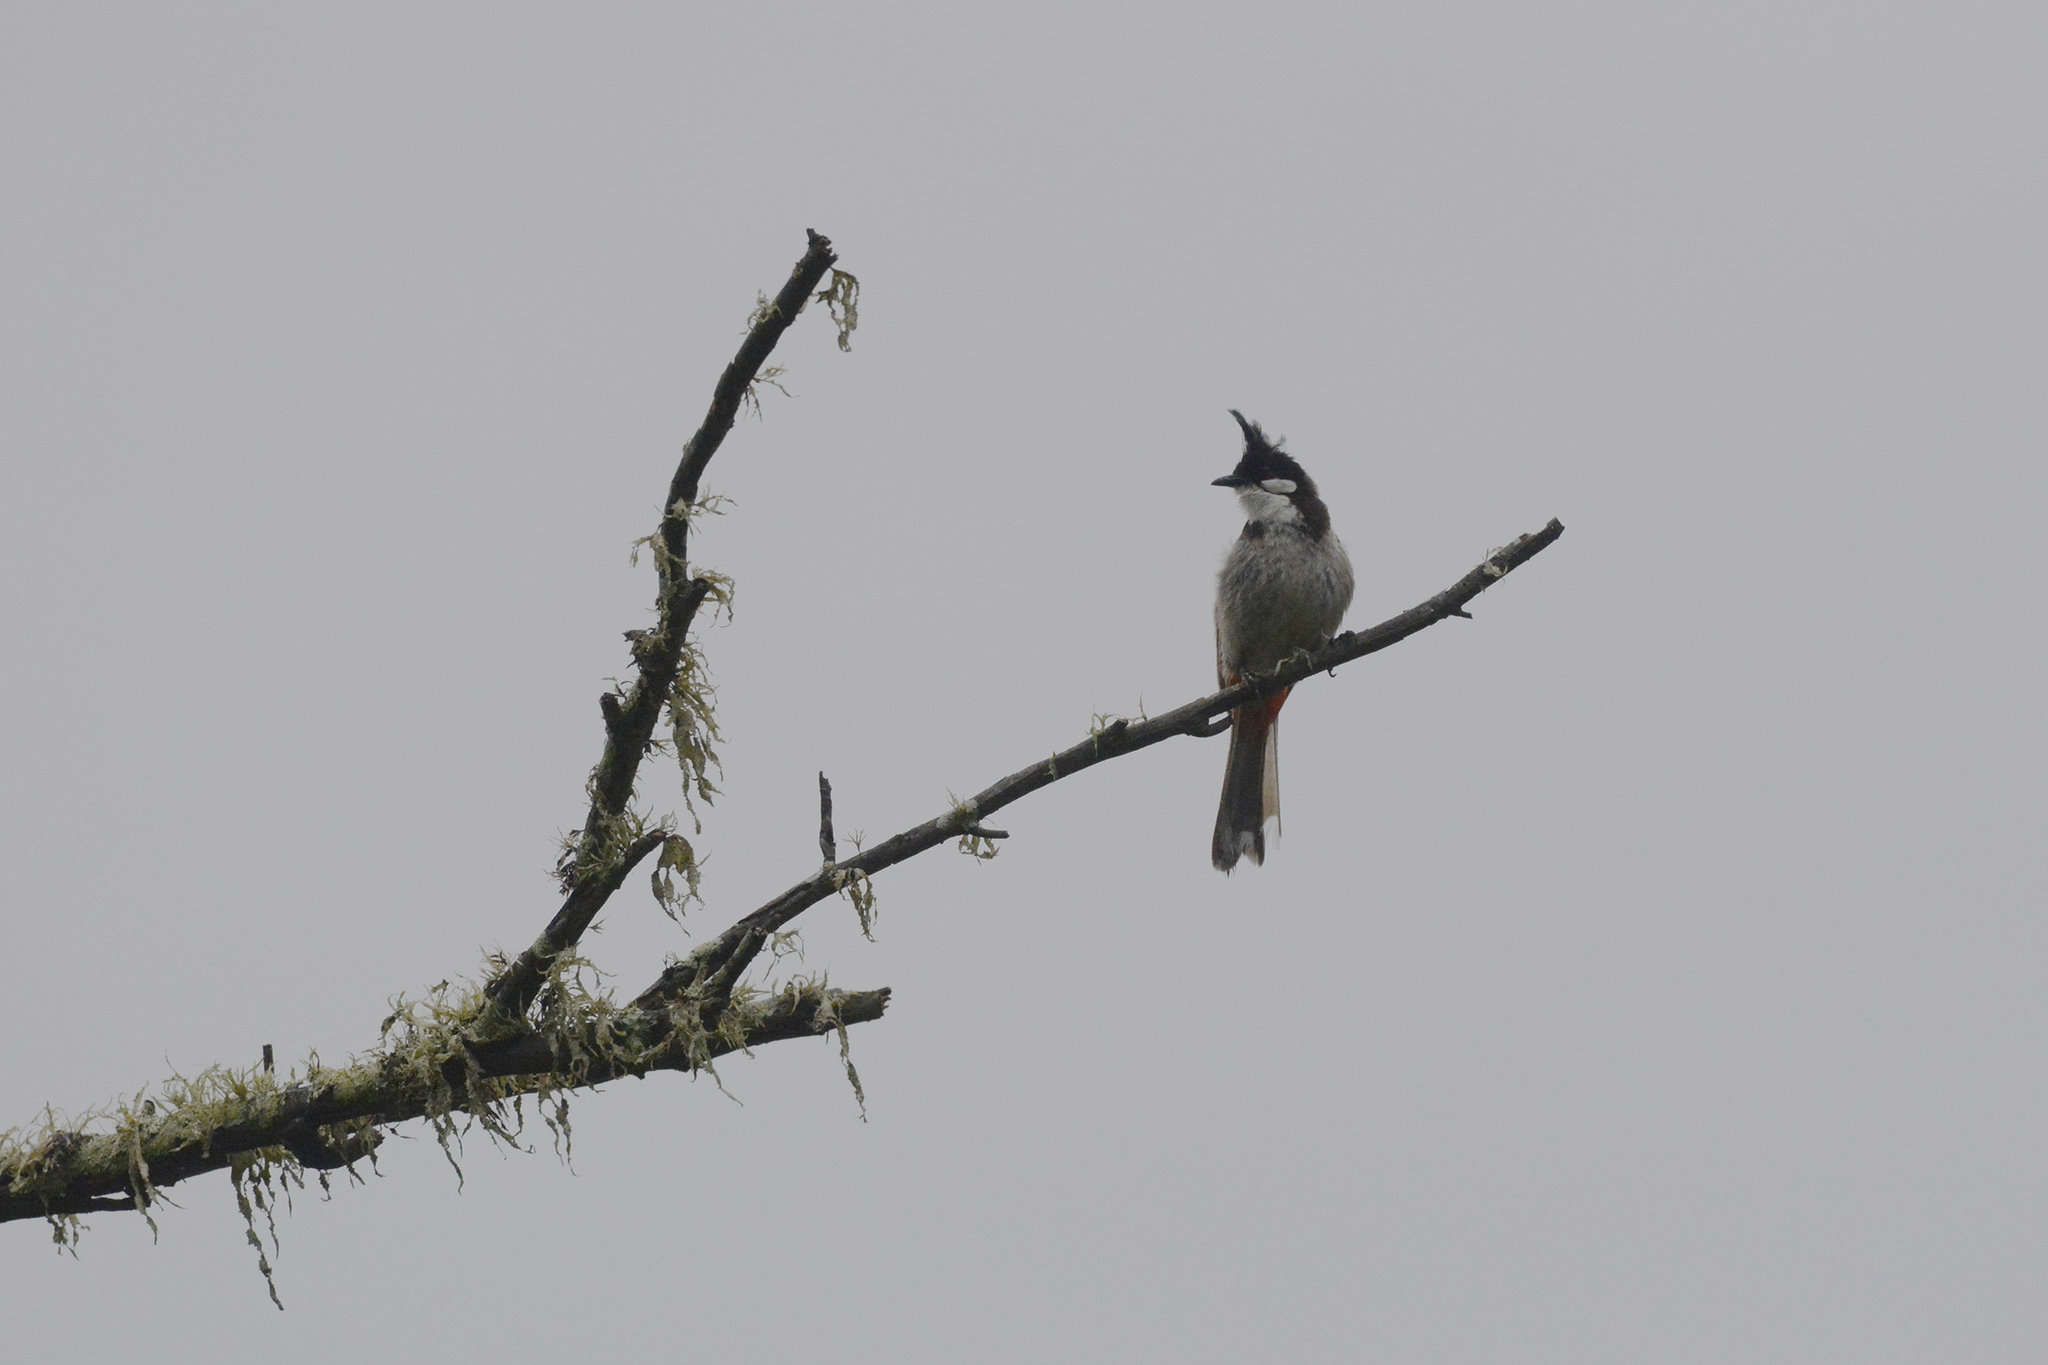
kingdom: Animalia
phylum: Chordata
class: Aves
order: Passeriformes
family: Pycnonotidae
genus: Pycnonotus
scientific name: Pycnonotus jocosus
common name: Red-whiskered bulbul
